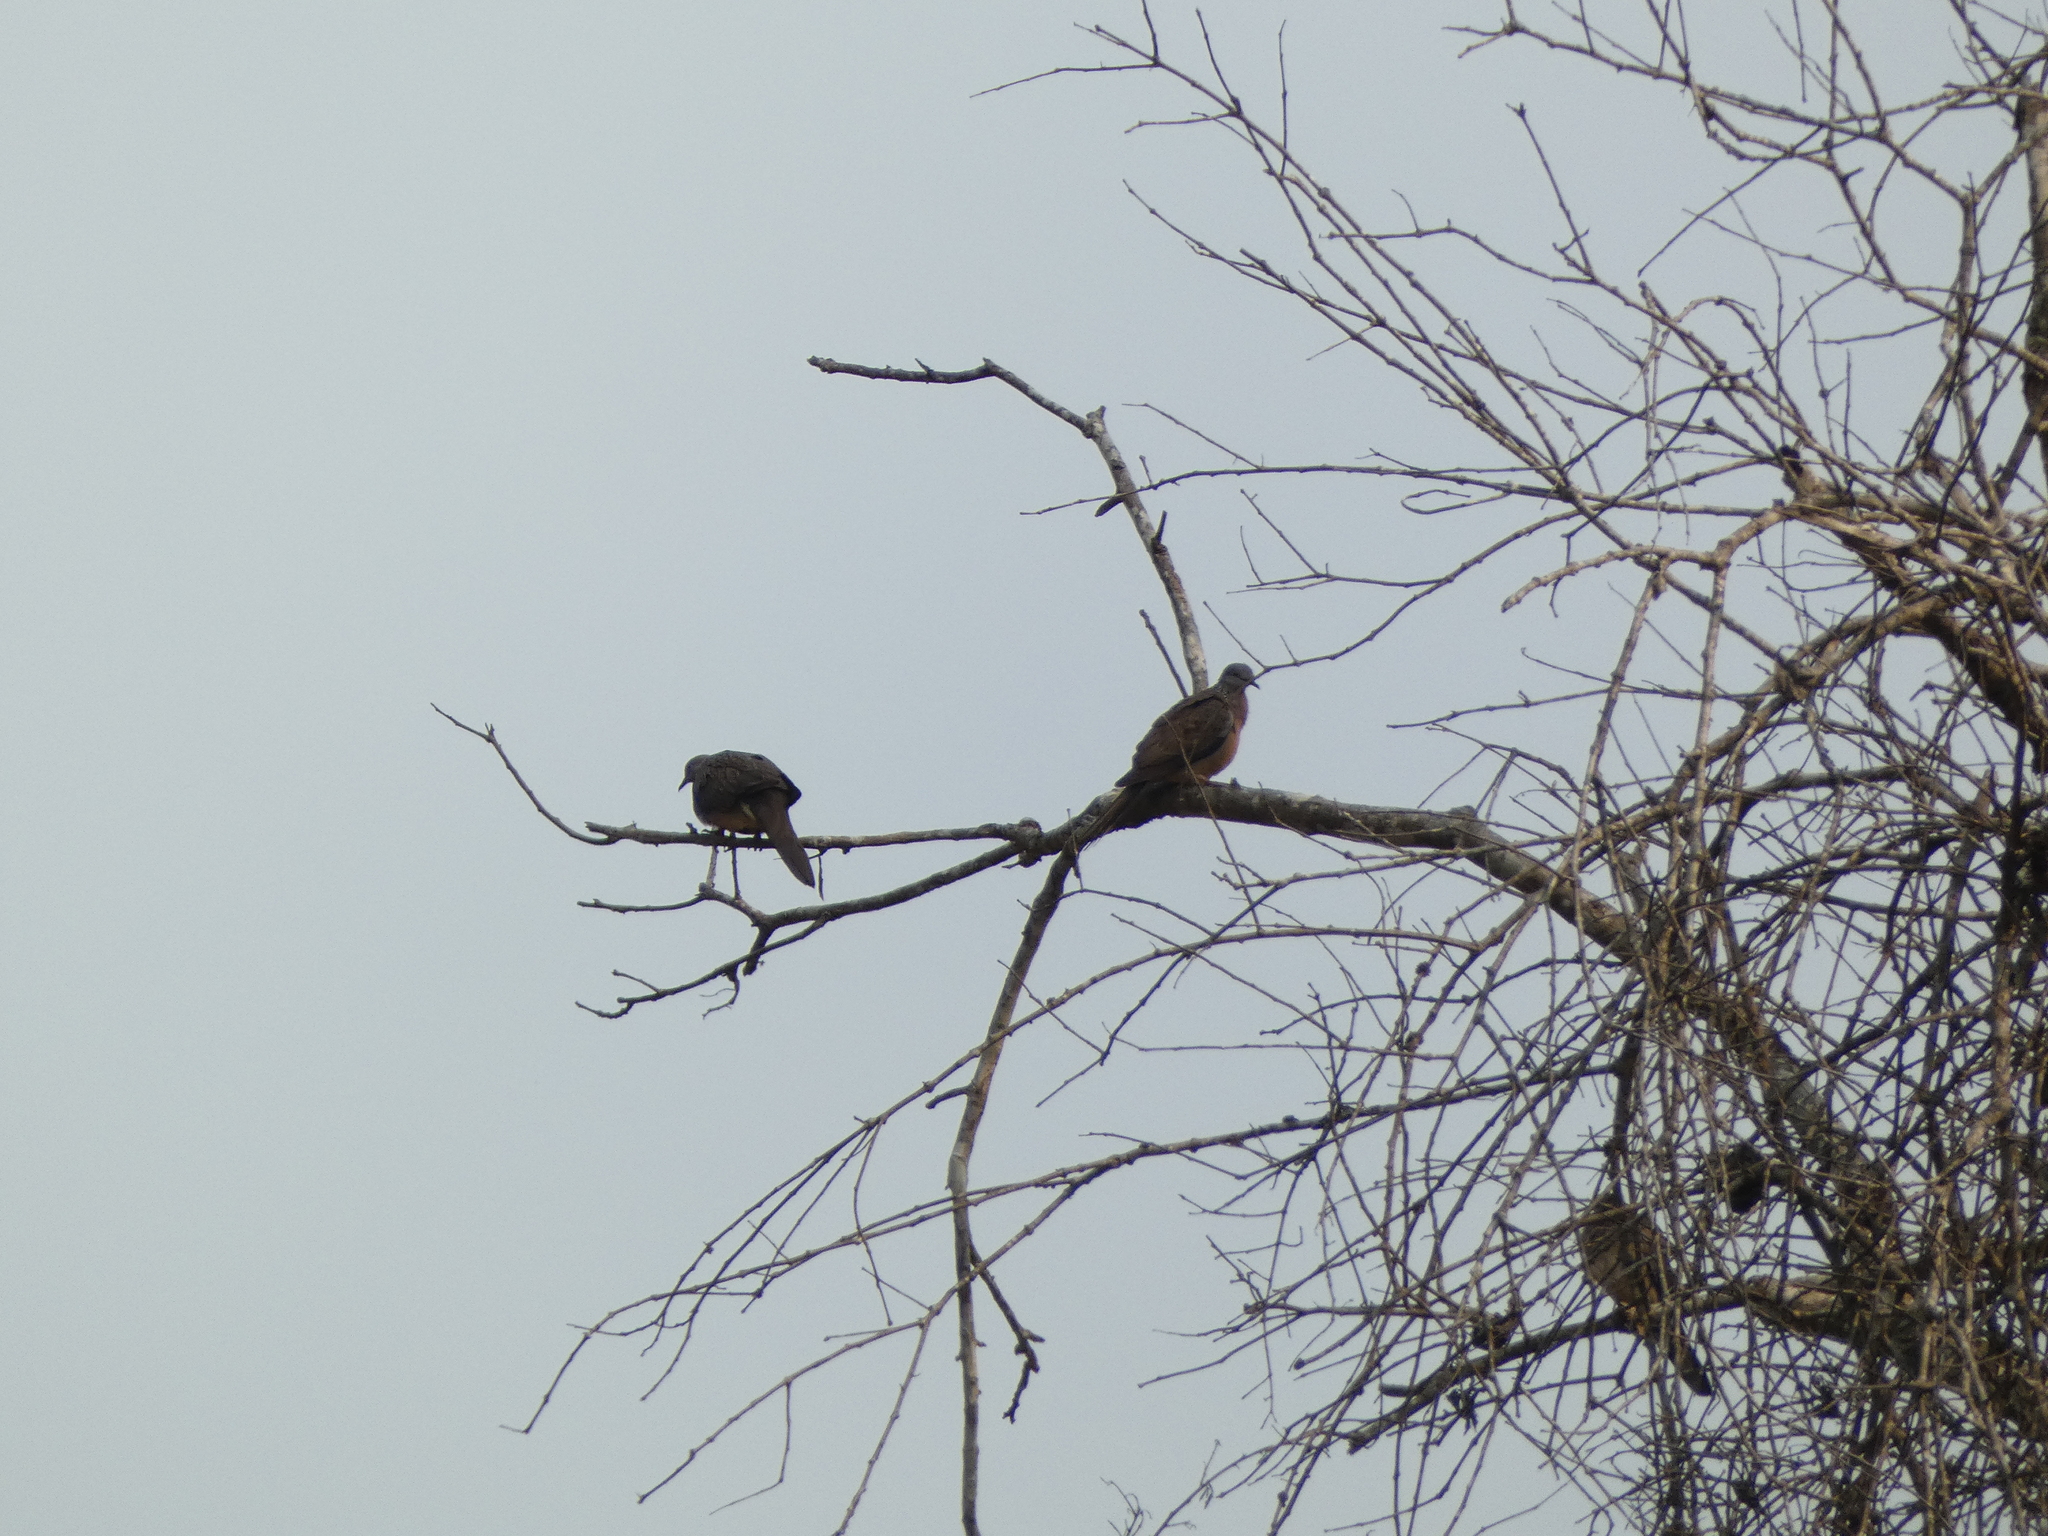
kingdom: Animalia
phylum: Chordata
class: Aves
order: Columbiformes
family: Columbidae
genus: Spilopelia
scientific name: Spilopelia chinensis
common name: Spotted dove
